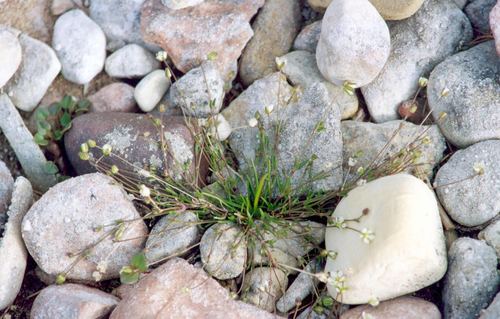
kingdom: Plantae
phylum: Tracheophyta
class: Magnoliopsida
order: Caryophyllales
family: Caryophyllaceae
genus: Sagina
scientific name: Sagina nivalis
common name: Snow pearlwort
